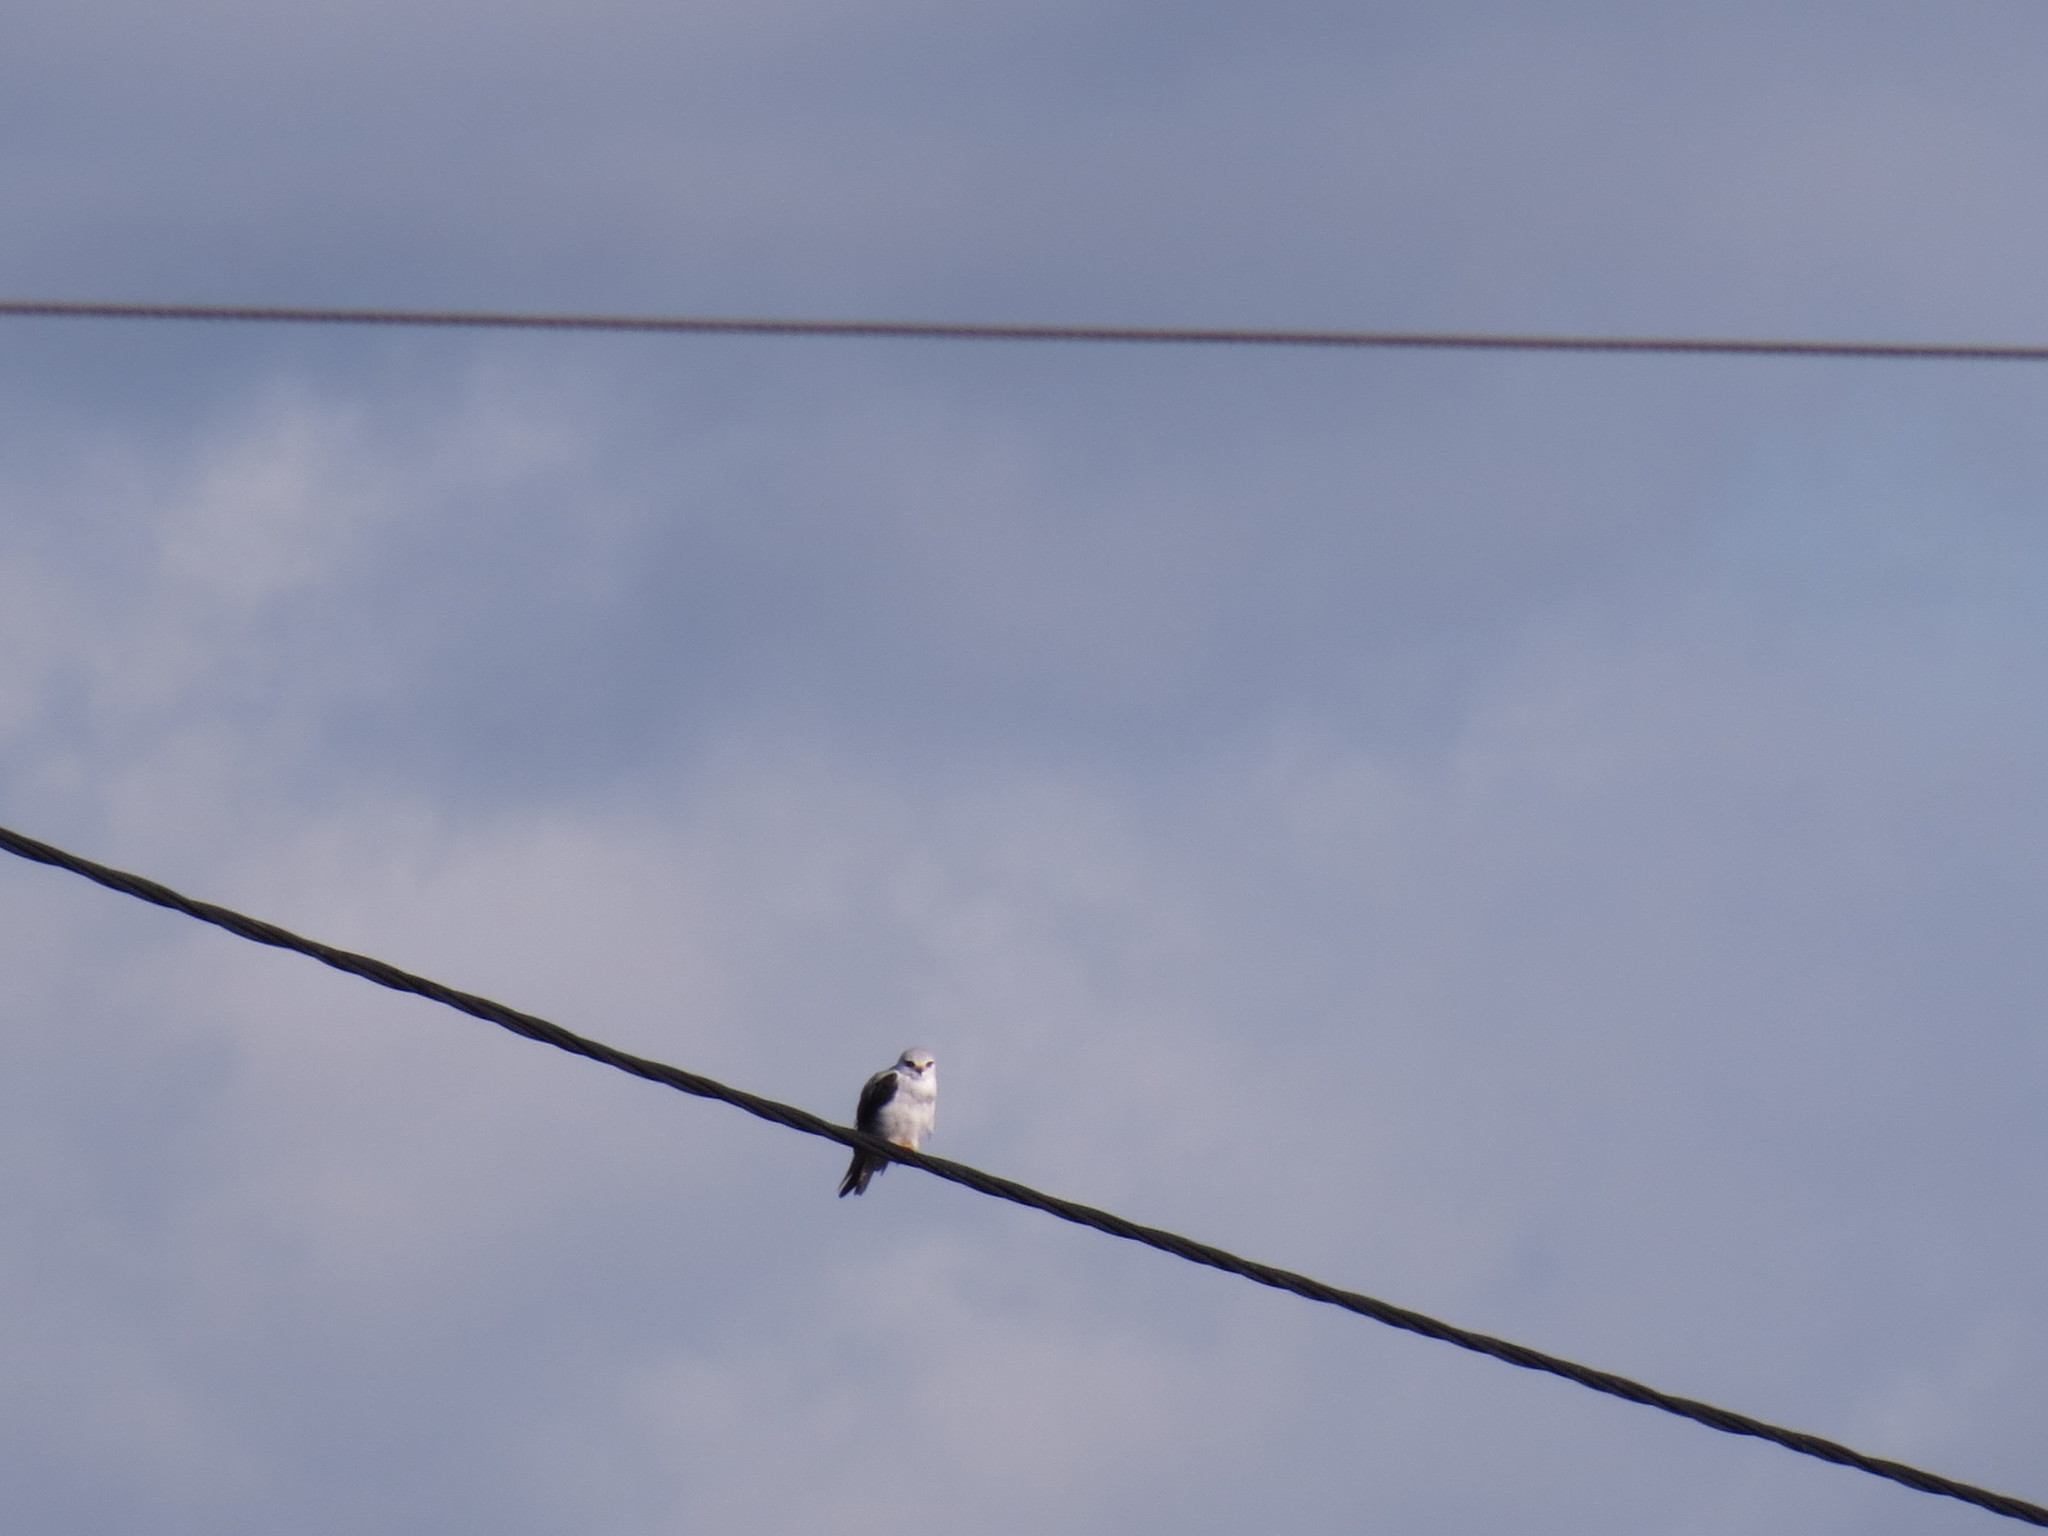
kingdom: Animalia
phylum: Chordata
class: Aves
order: Accipitriformes
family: Accipitridae
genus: Elanus
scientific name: Elanus caeruleus
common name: Black-winged kite
